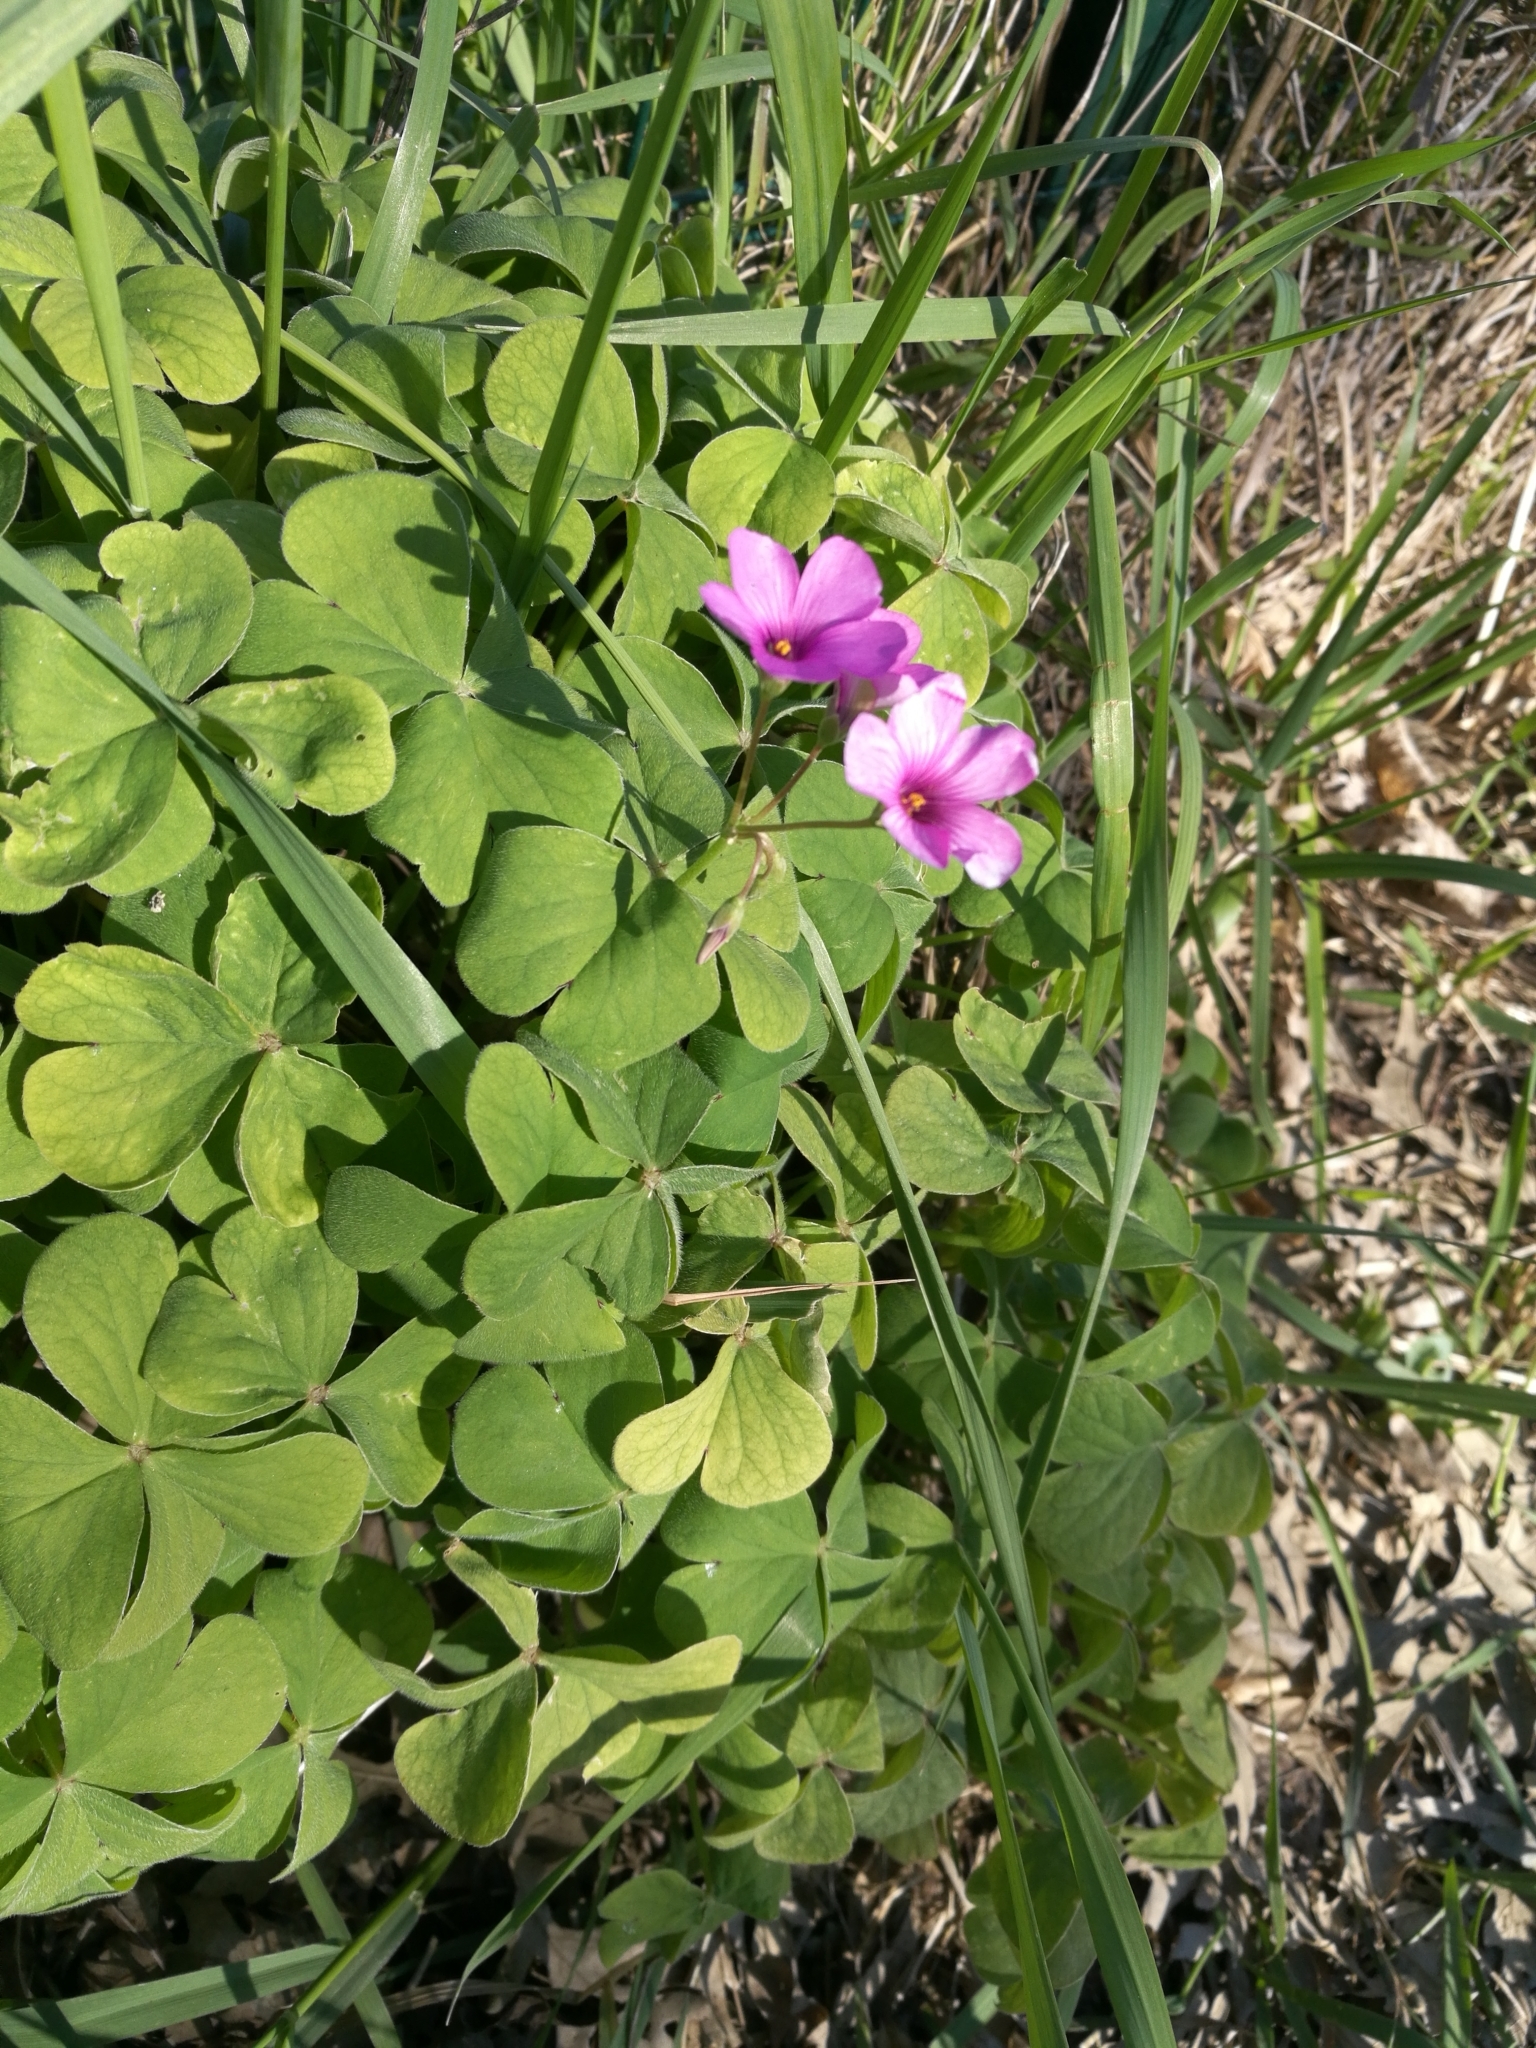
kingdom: Plantae
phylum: Tracheophyta
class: Magnoliopsida
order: Oxalidales
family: Oxalidaceae
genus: Oxalis
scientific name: Oxalis articulata
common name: Pink-sorrel
